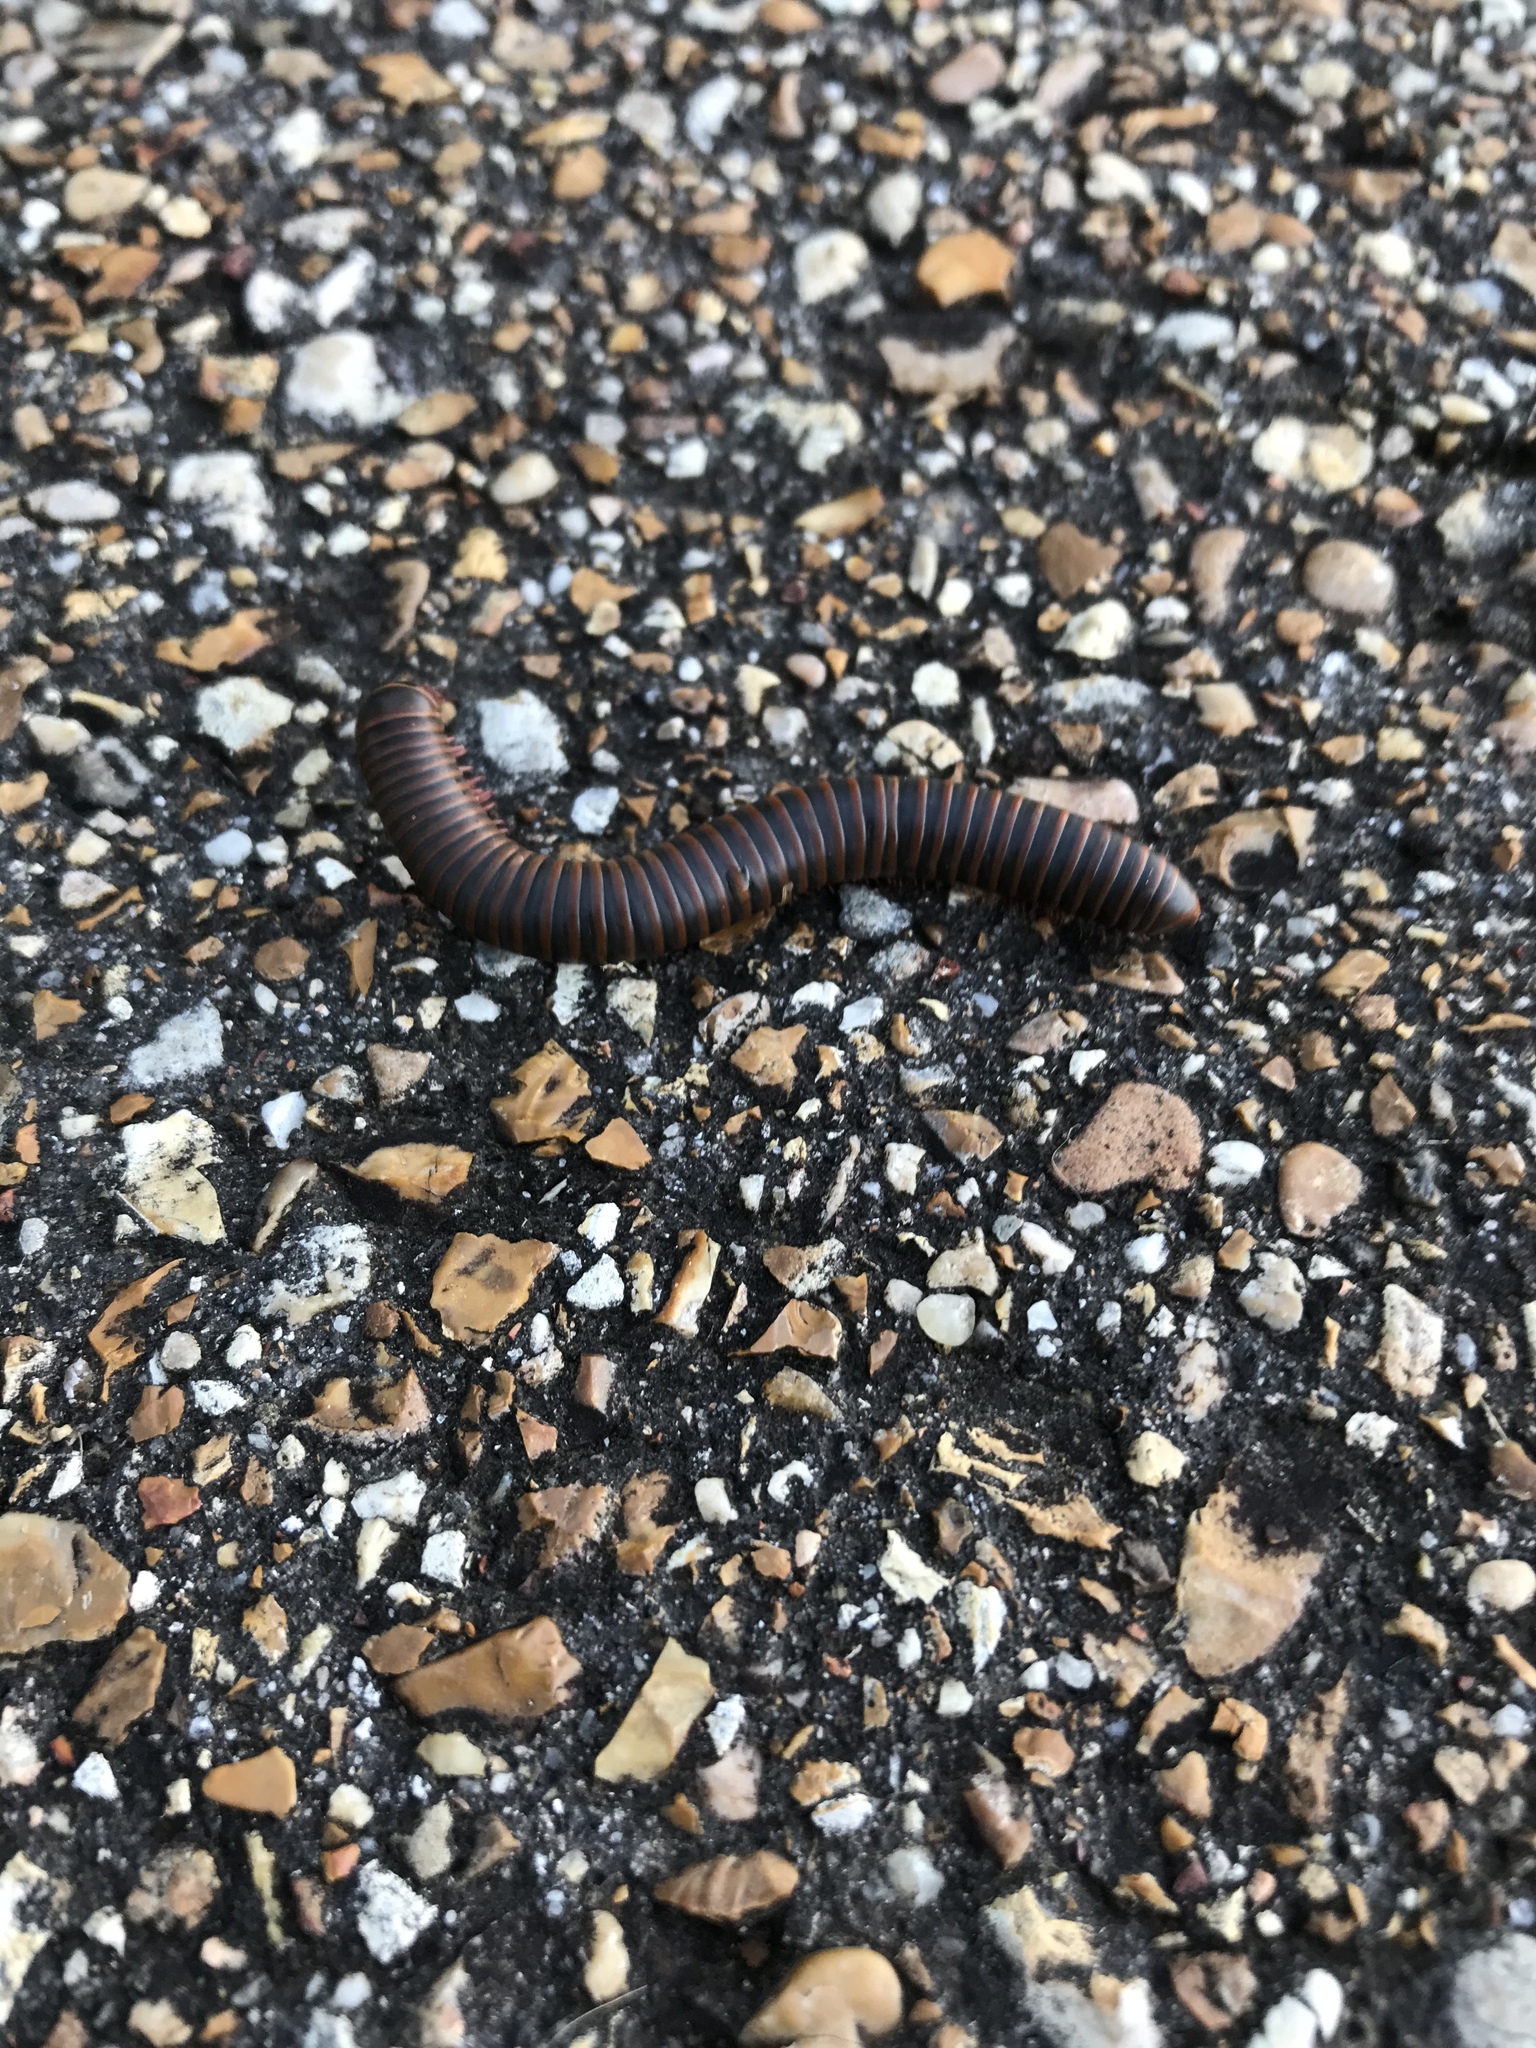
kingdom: Animalia
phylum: Arthropoda
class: Diplopoda
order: Spirobolida
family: Spirobolidae
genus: Narceus
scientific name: Narceus
